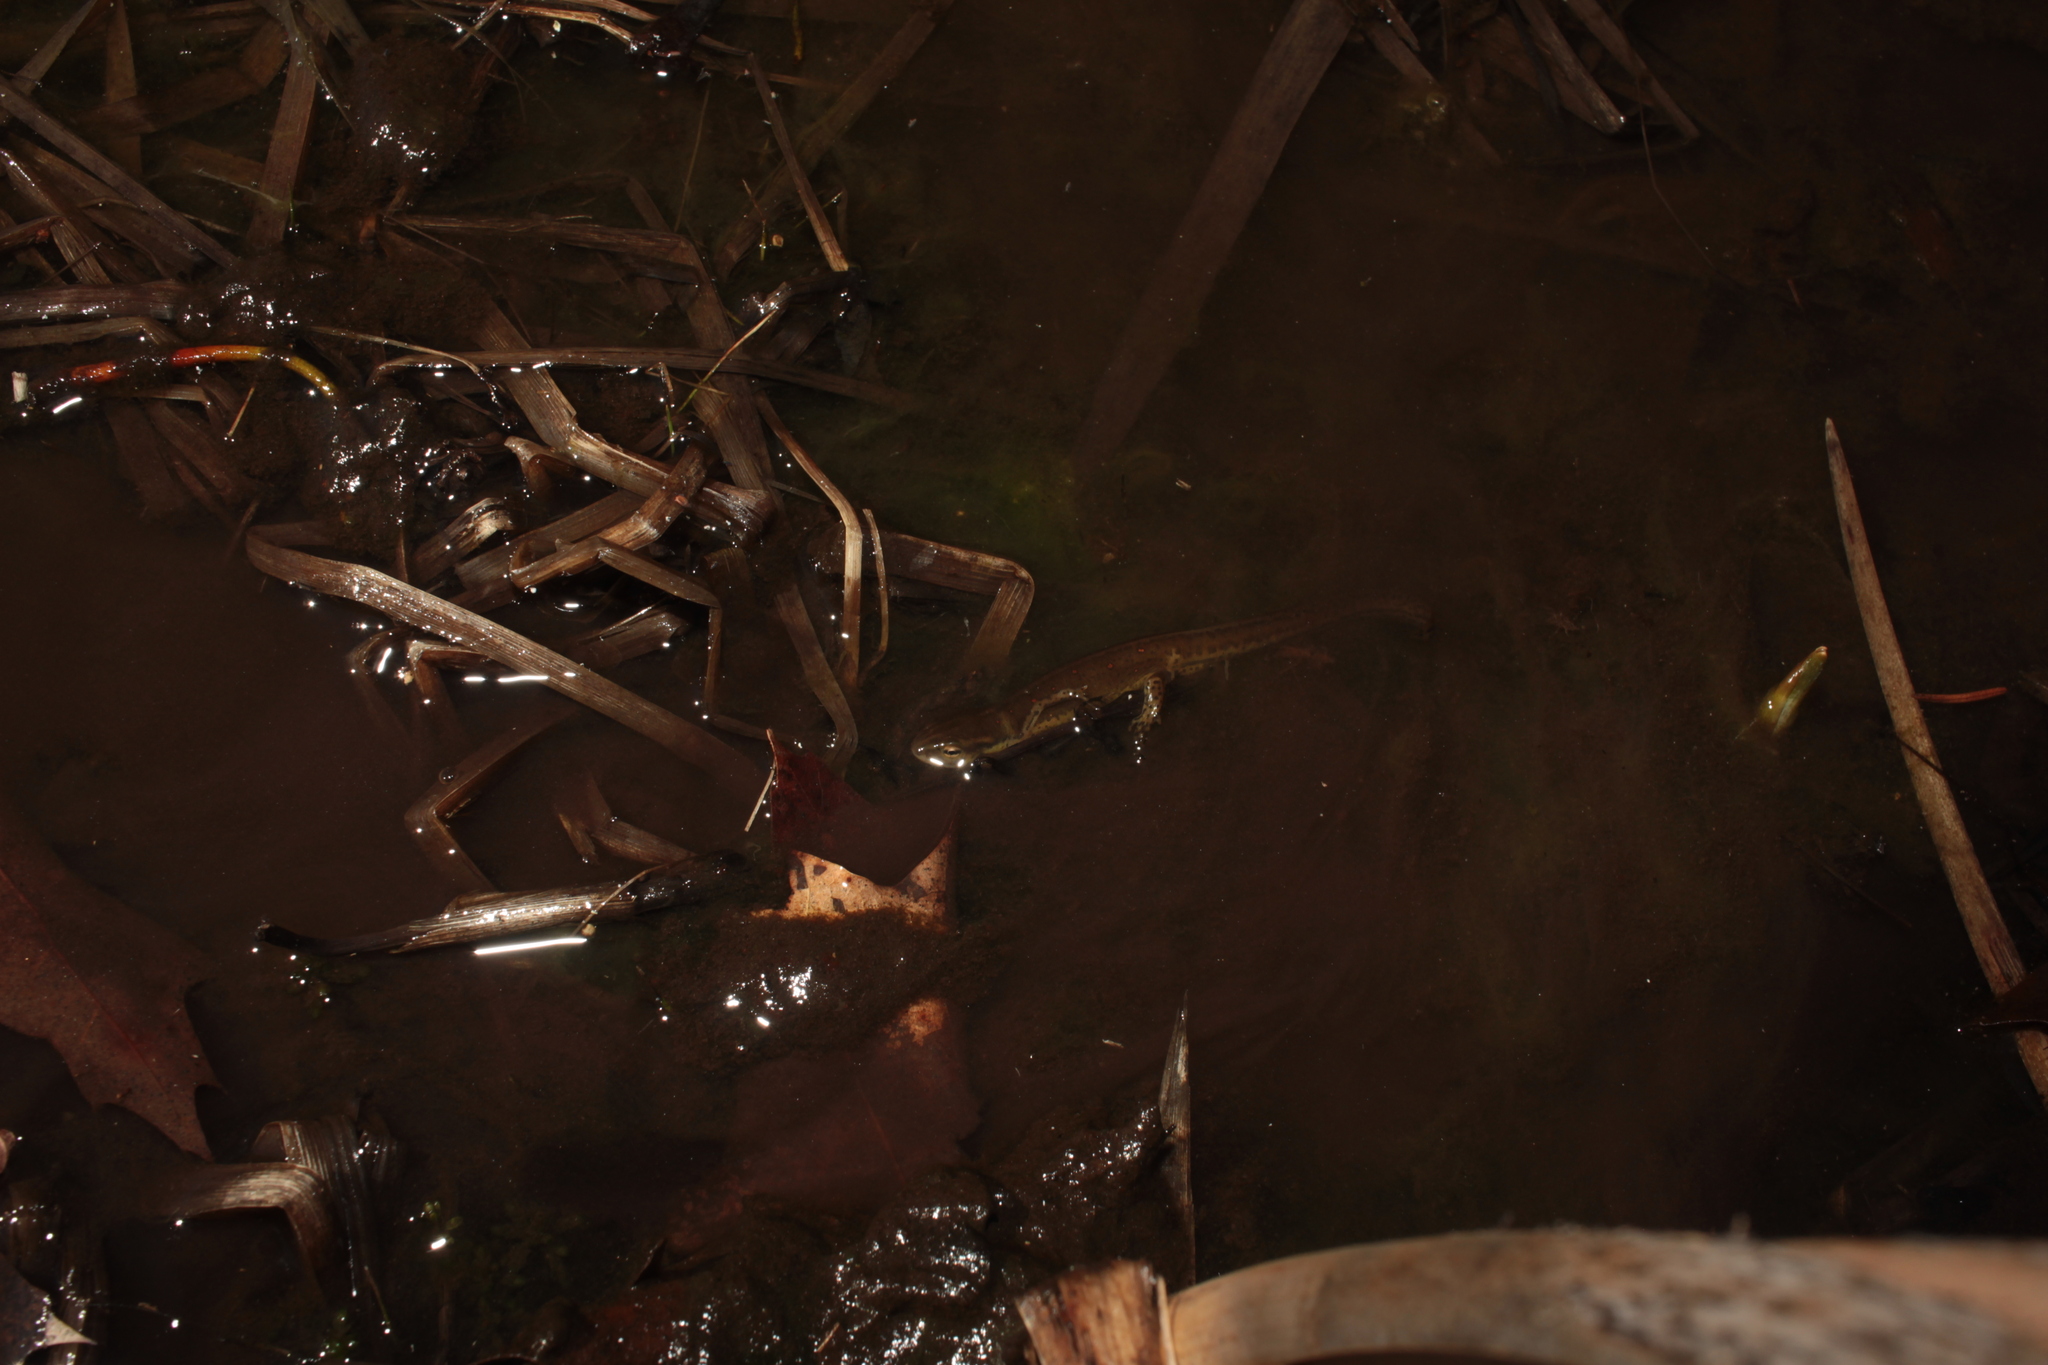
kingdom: Animalia
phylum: Chordata
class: Amphibia
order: Caudata
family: Salamandridae
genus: Notophthalmus
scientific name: Notophthalmus viridescens
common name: Eastern newt
